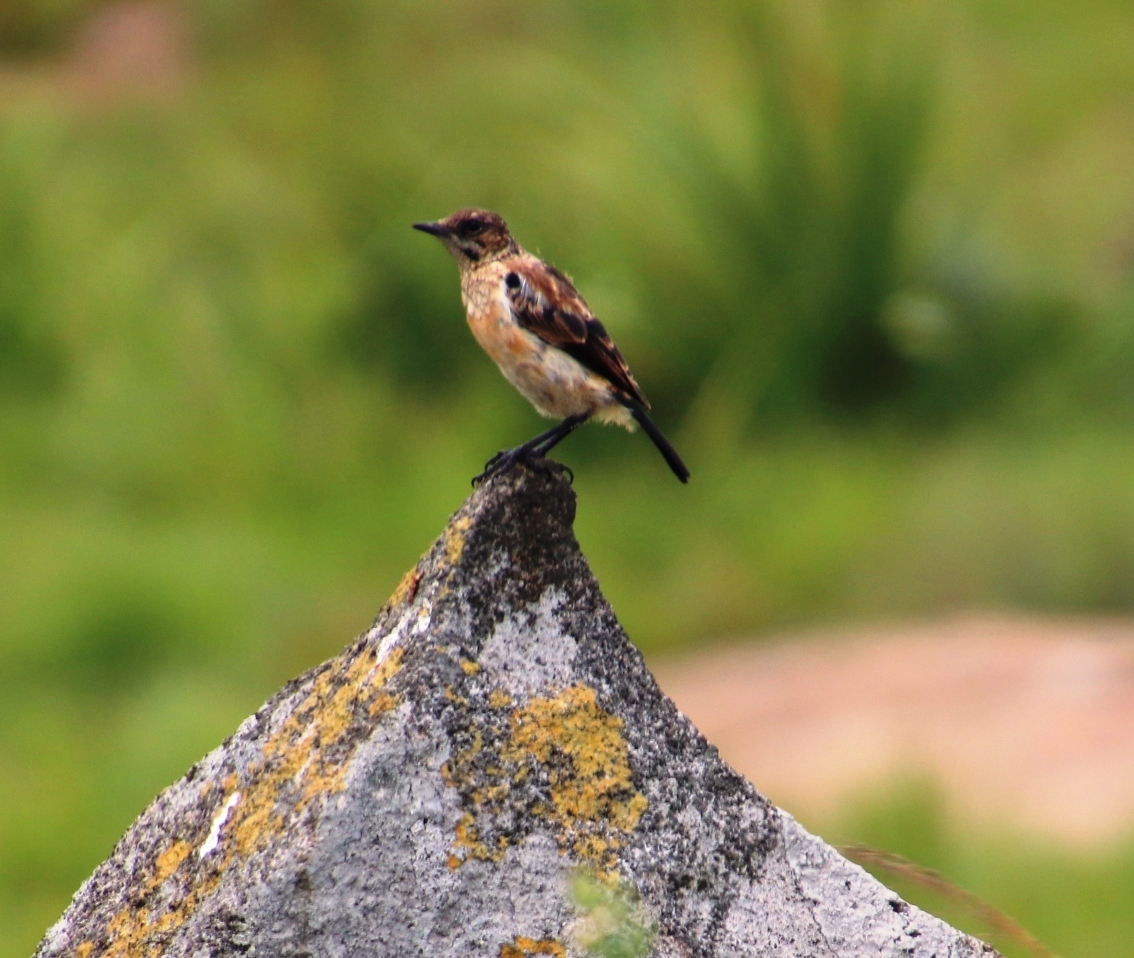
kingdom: Animalia
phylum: Chordata
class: Aves
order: Passeriformes
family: Muscicapidae
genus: Saxicola
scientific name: Saxicola torquatus
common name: African stonechat
